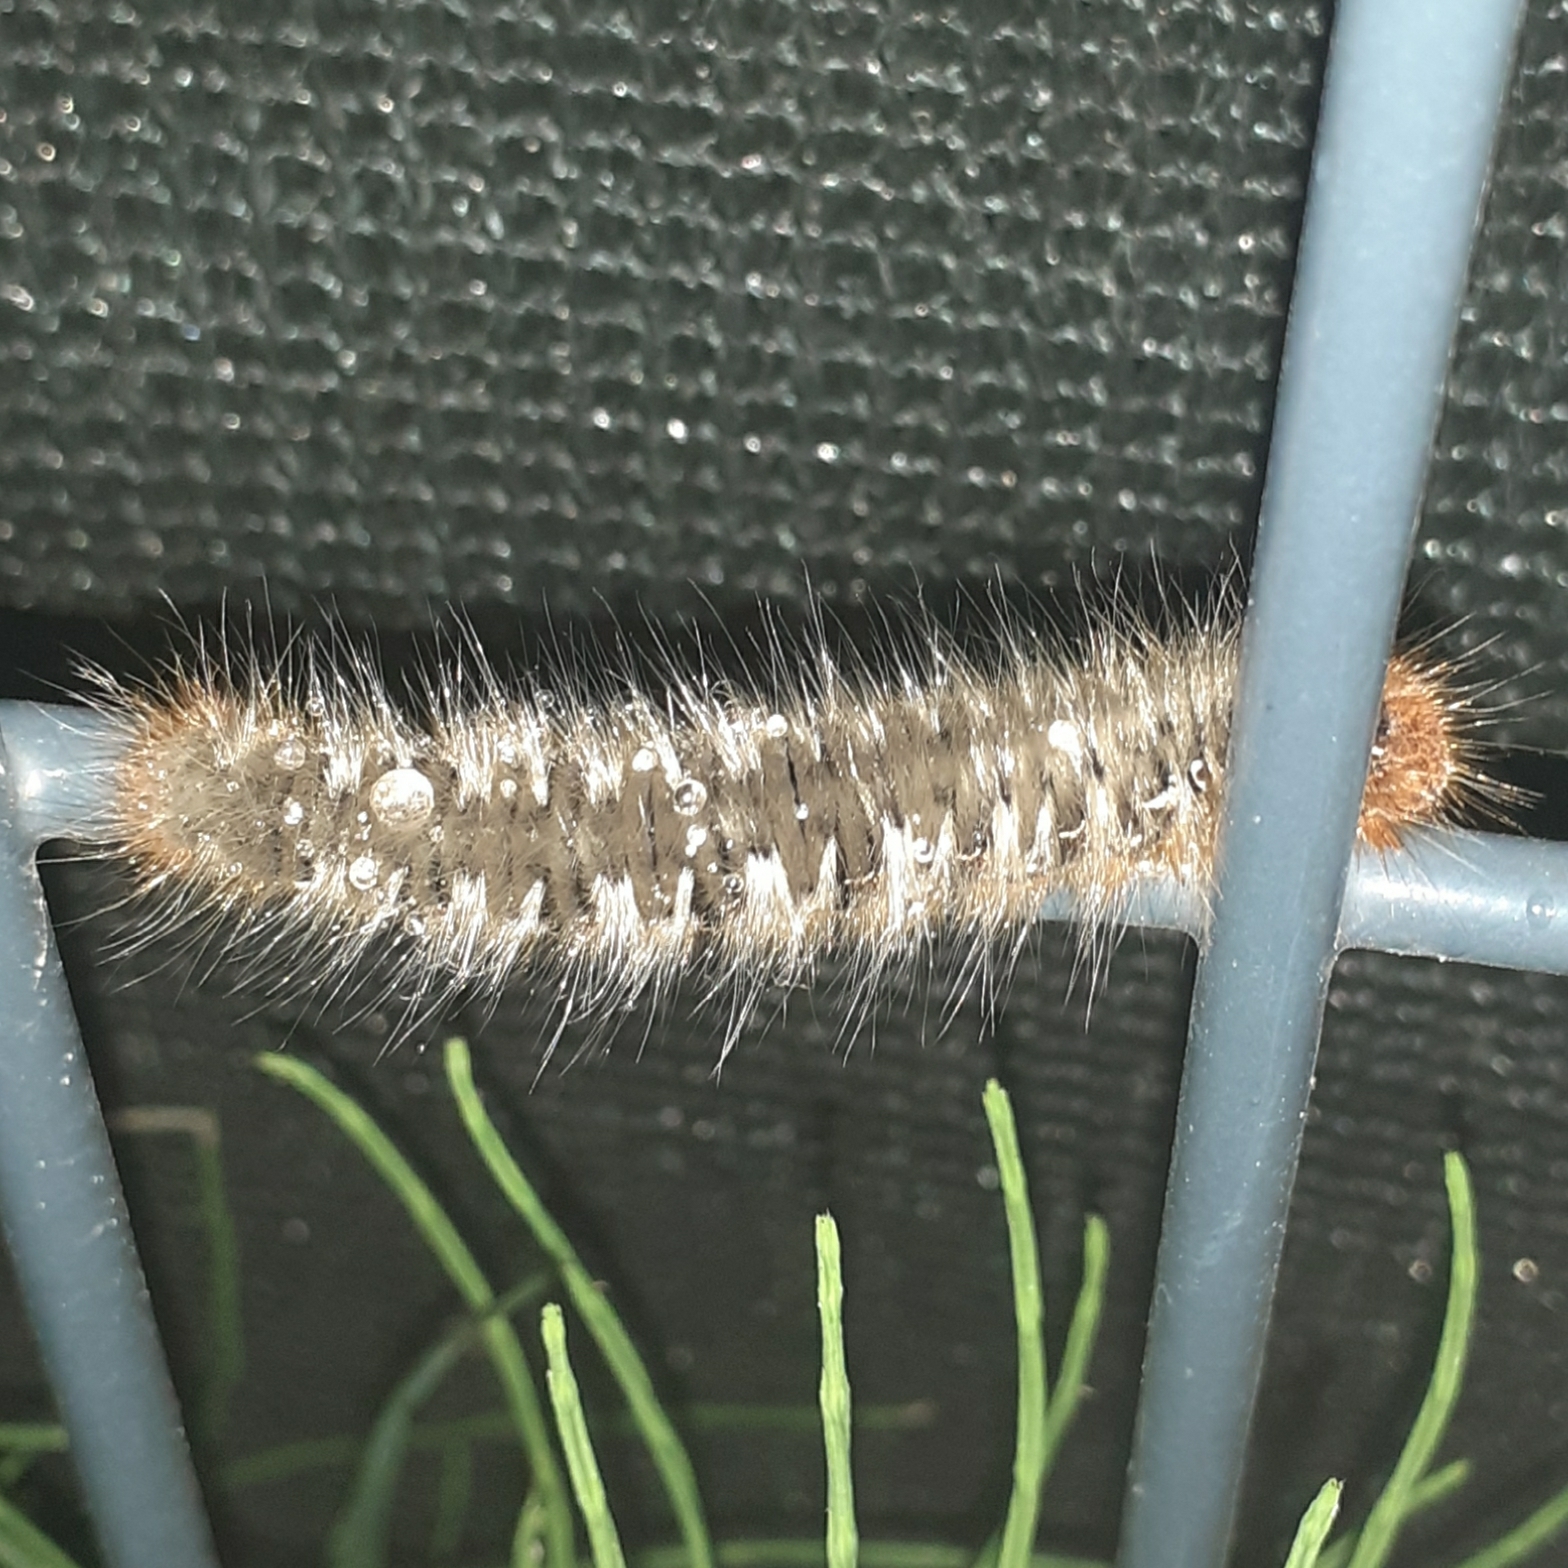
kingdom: Animalia
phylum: Arthropoda
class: Insecta
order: Lepidoptera
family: Lasiocampidae
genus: Lasiocampa
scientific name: Lasiocampa quercus
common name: Oak eggar
